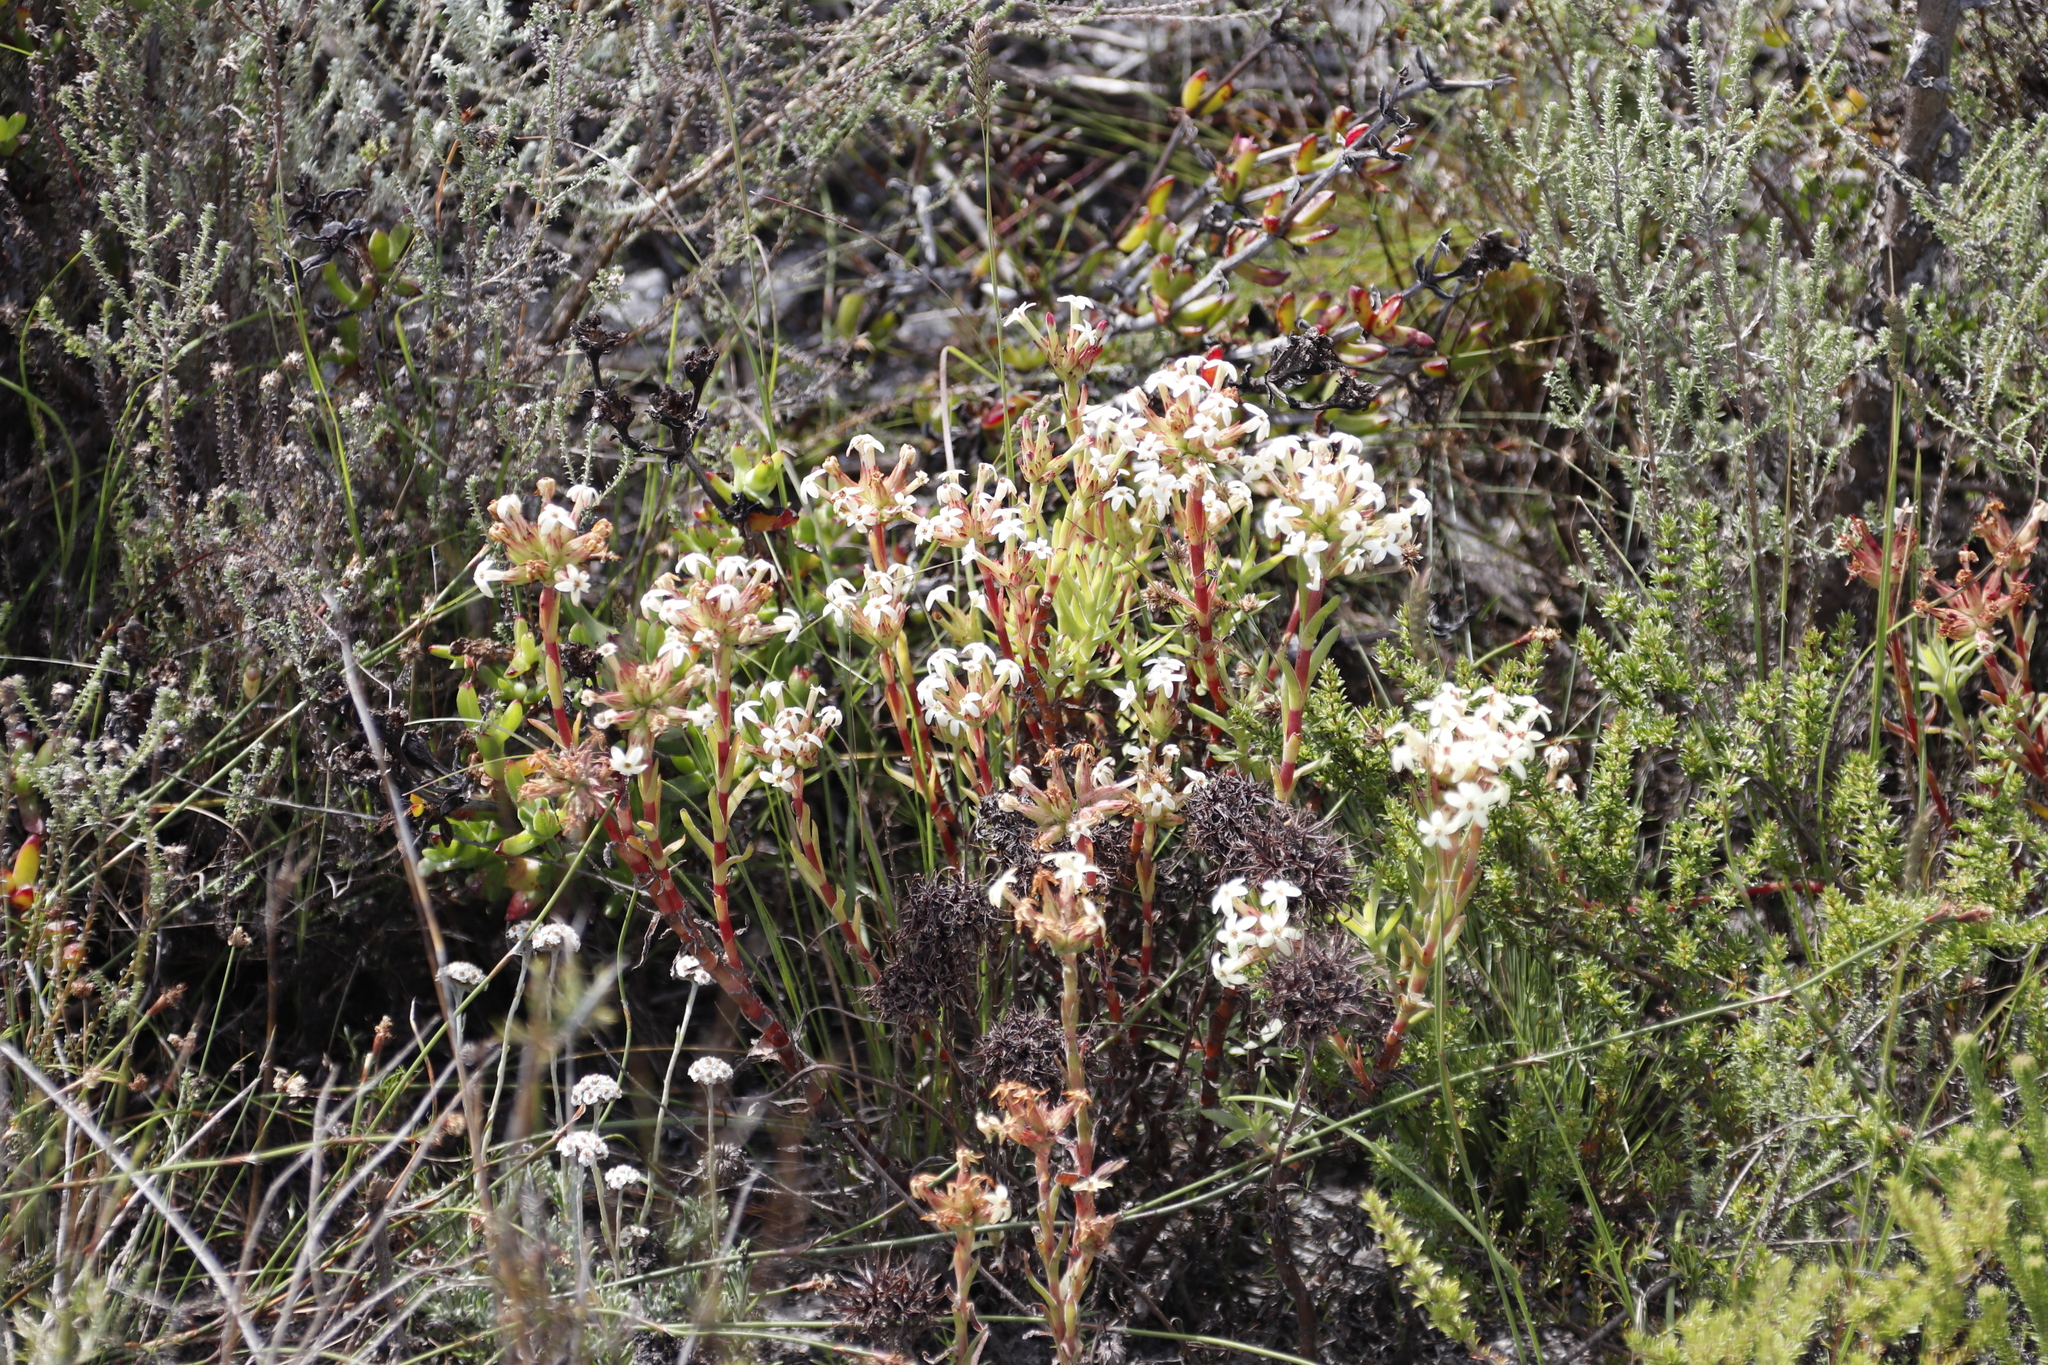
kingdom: Plantae
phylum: Tracheophyta
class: Magnoliopsida
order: Saxifragales
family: Crassulaceae
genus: Crassula
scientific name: Crassula fascicularis
